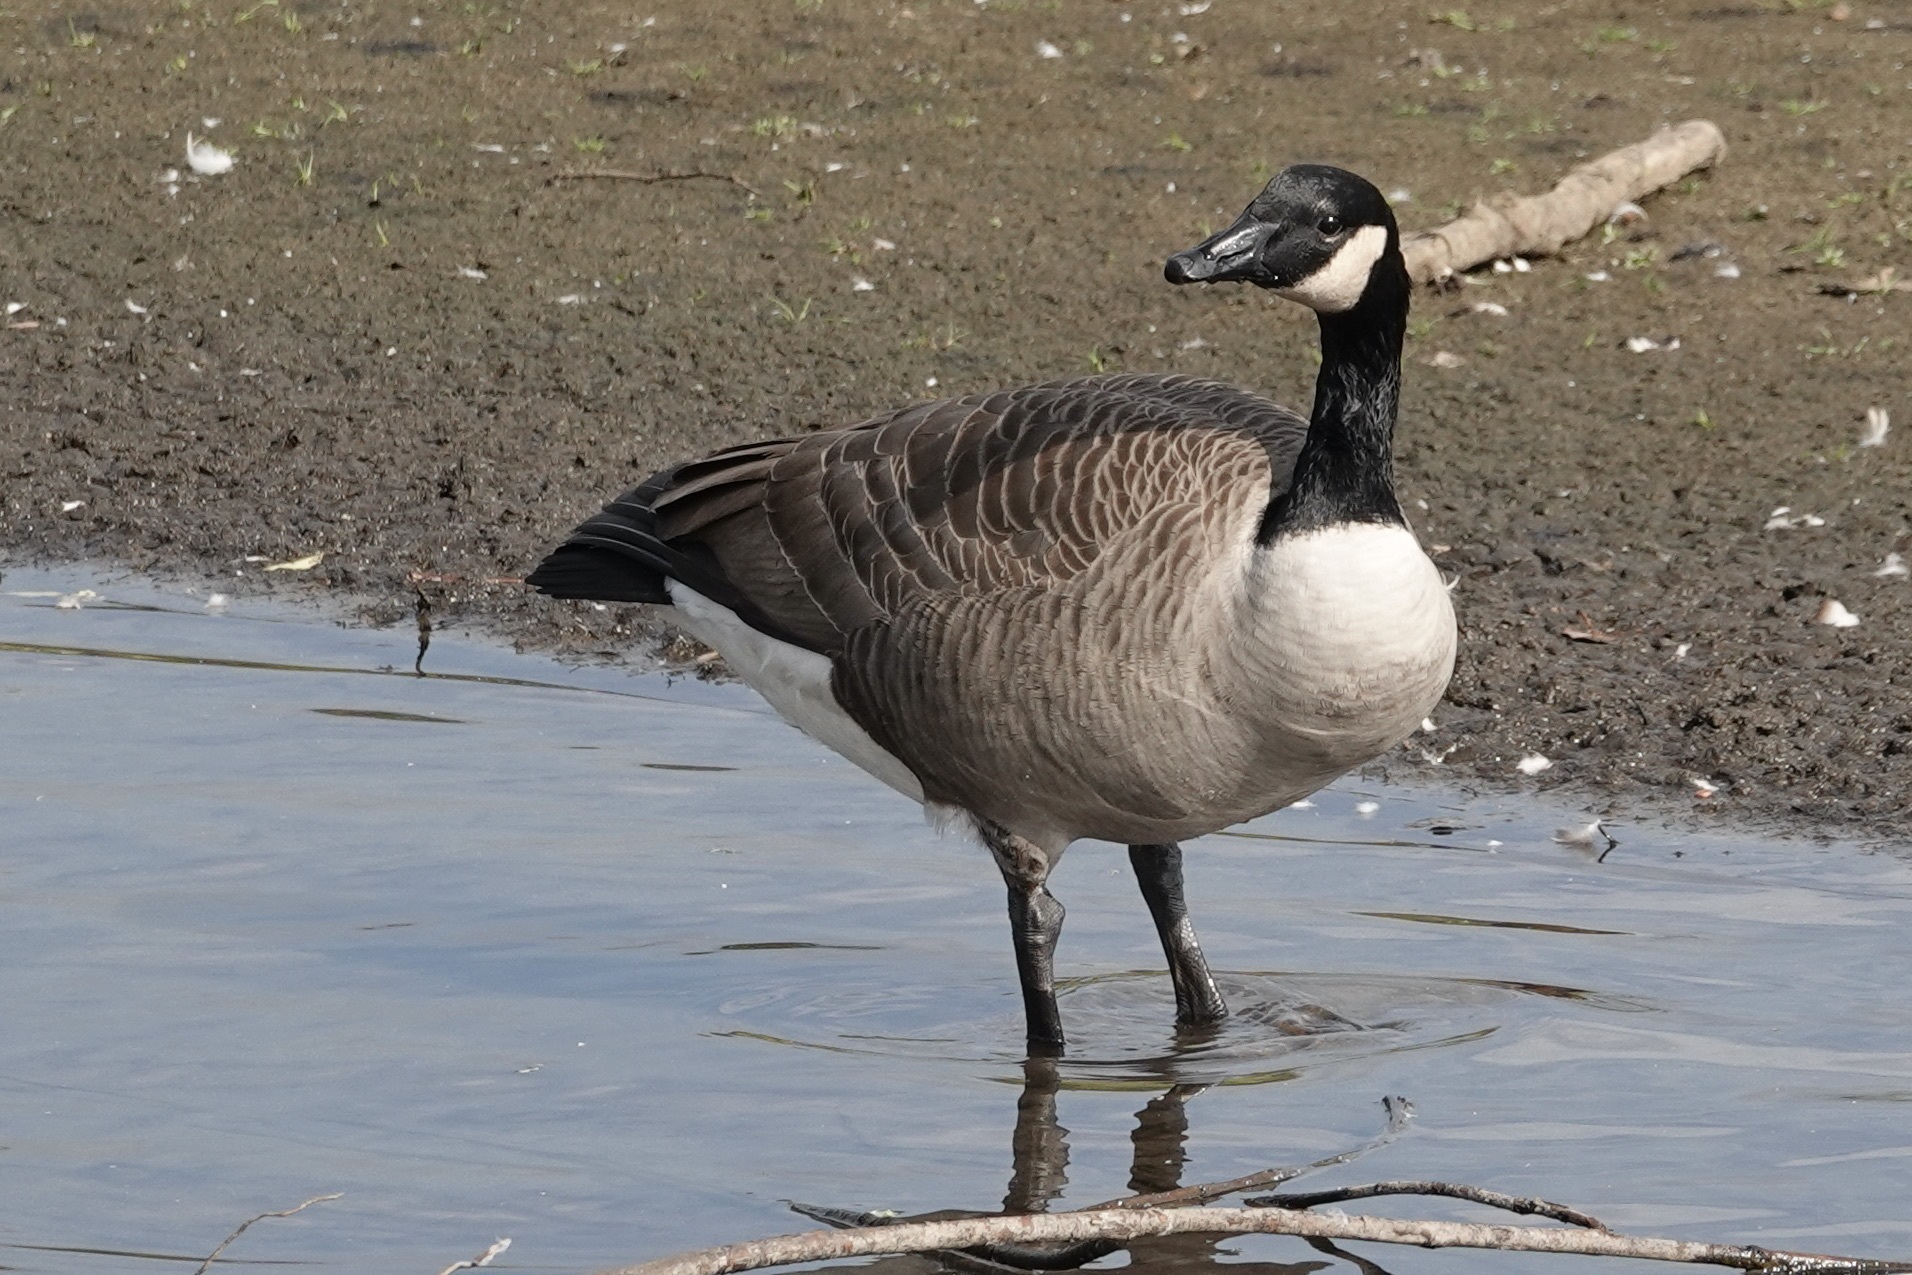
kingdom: Animalia
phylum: Chordata
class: Aves
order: Anseriformes
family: Anatidae
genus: Branta
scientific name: Branta canadensis
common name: Canada goose
